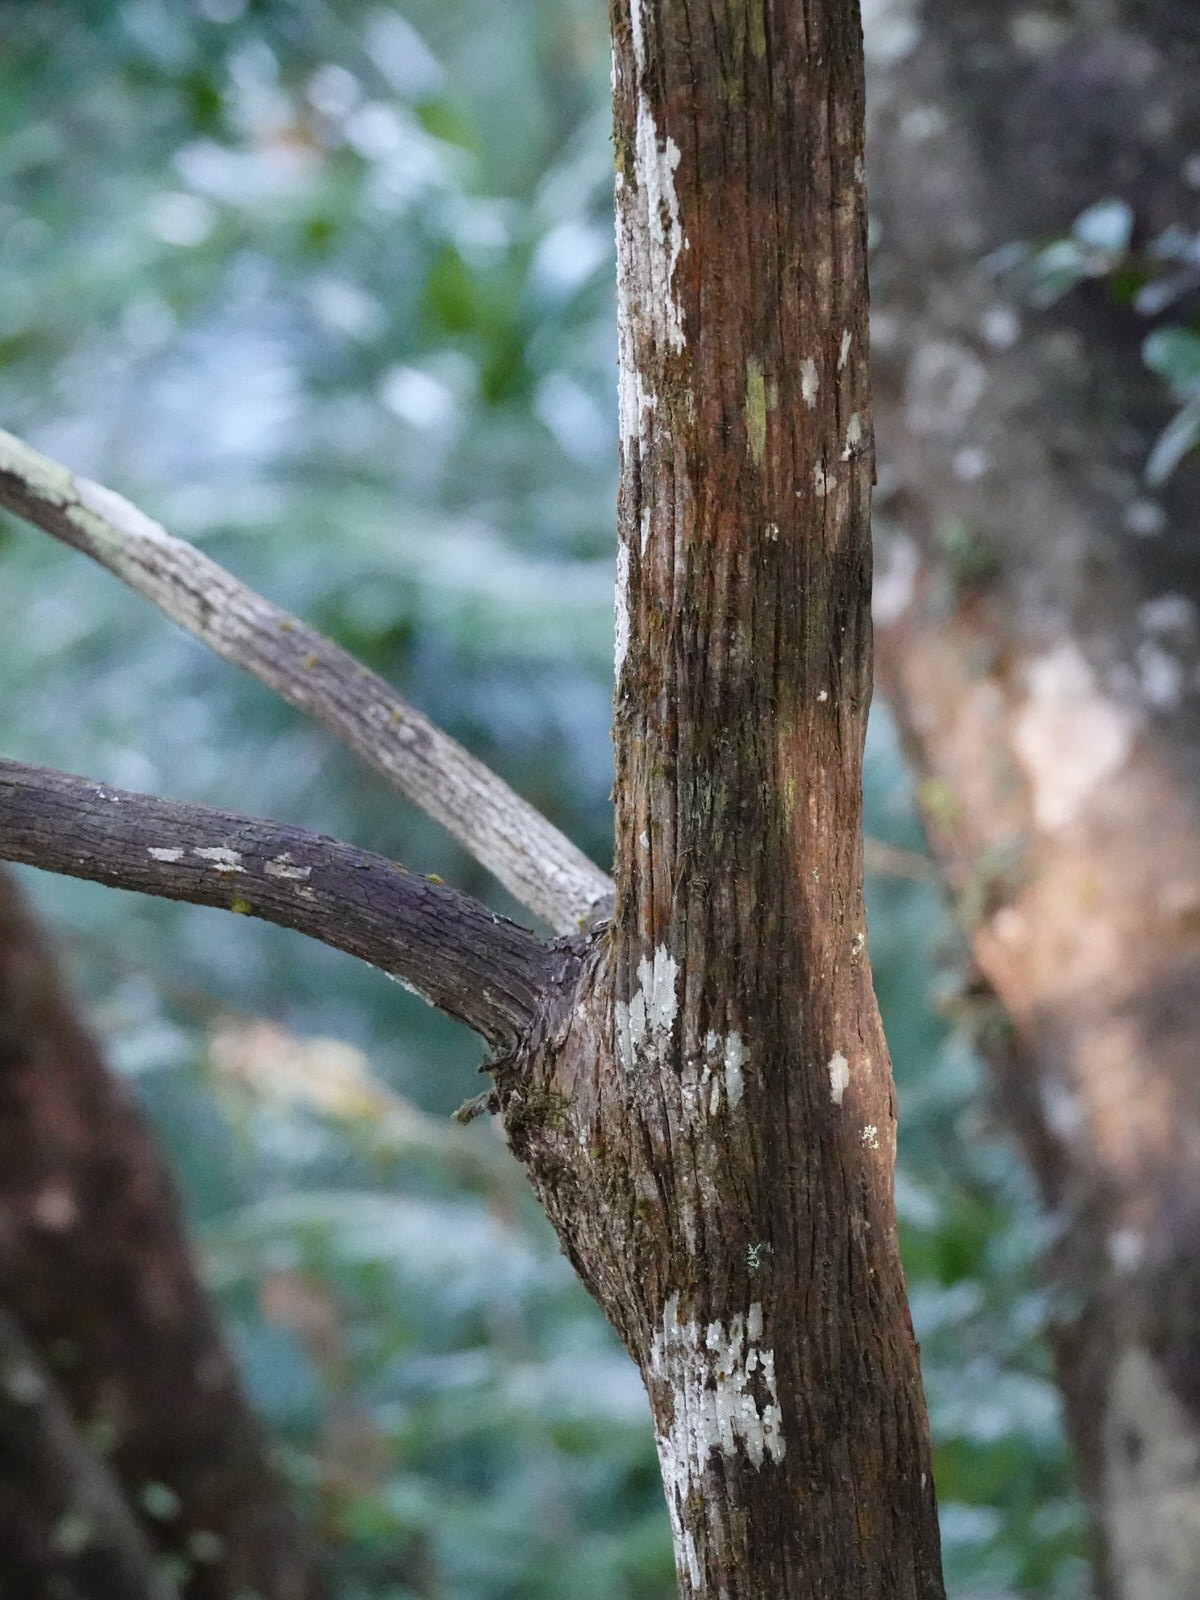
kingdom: Plantae
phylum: Tracheophyta
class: Magnoliopsida
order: Ericales
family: Ericaceae
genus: Dracophyllum
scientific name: Dracophyllum latifolium
